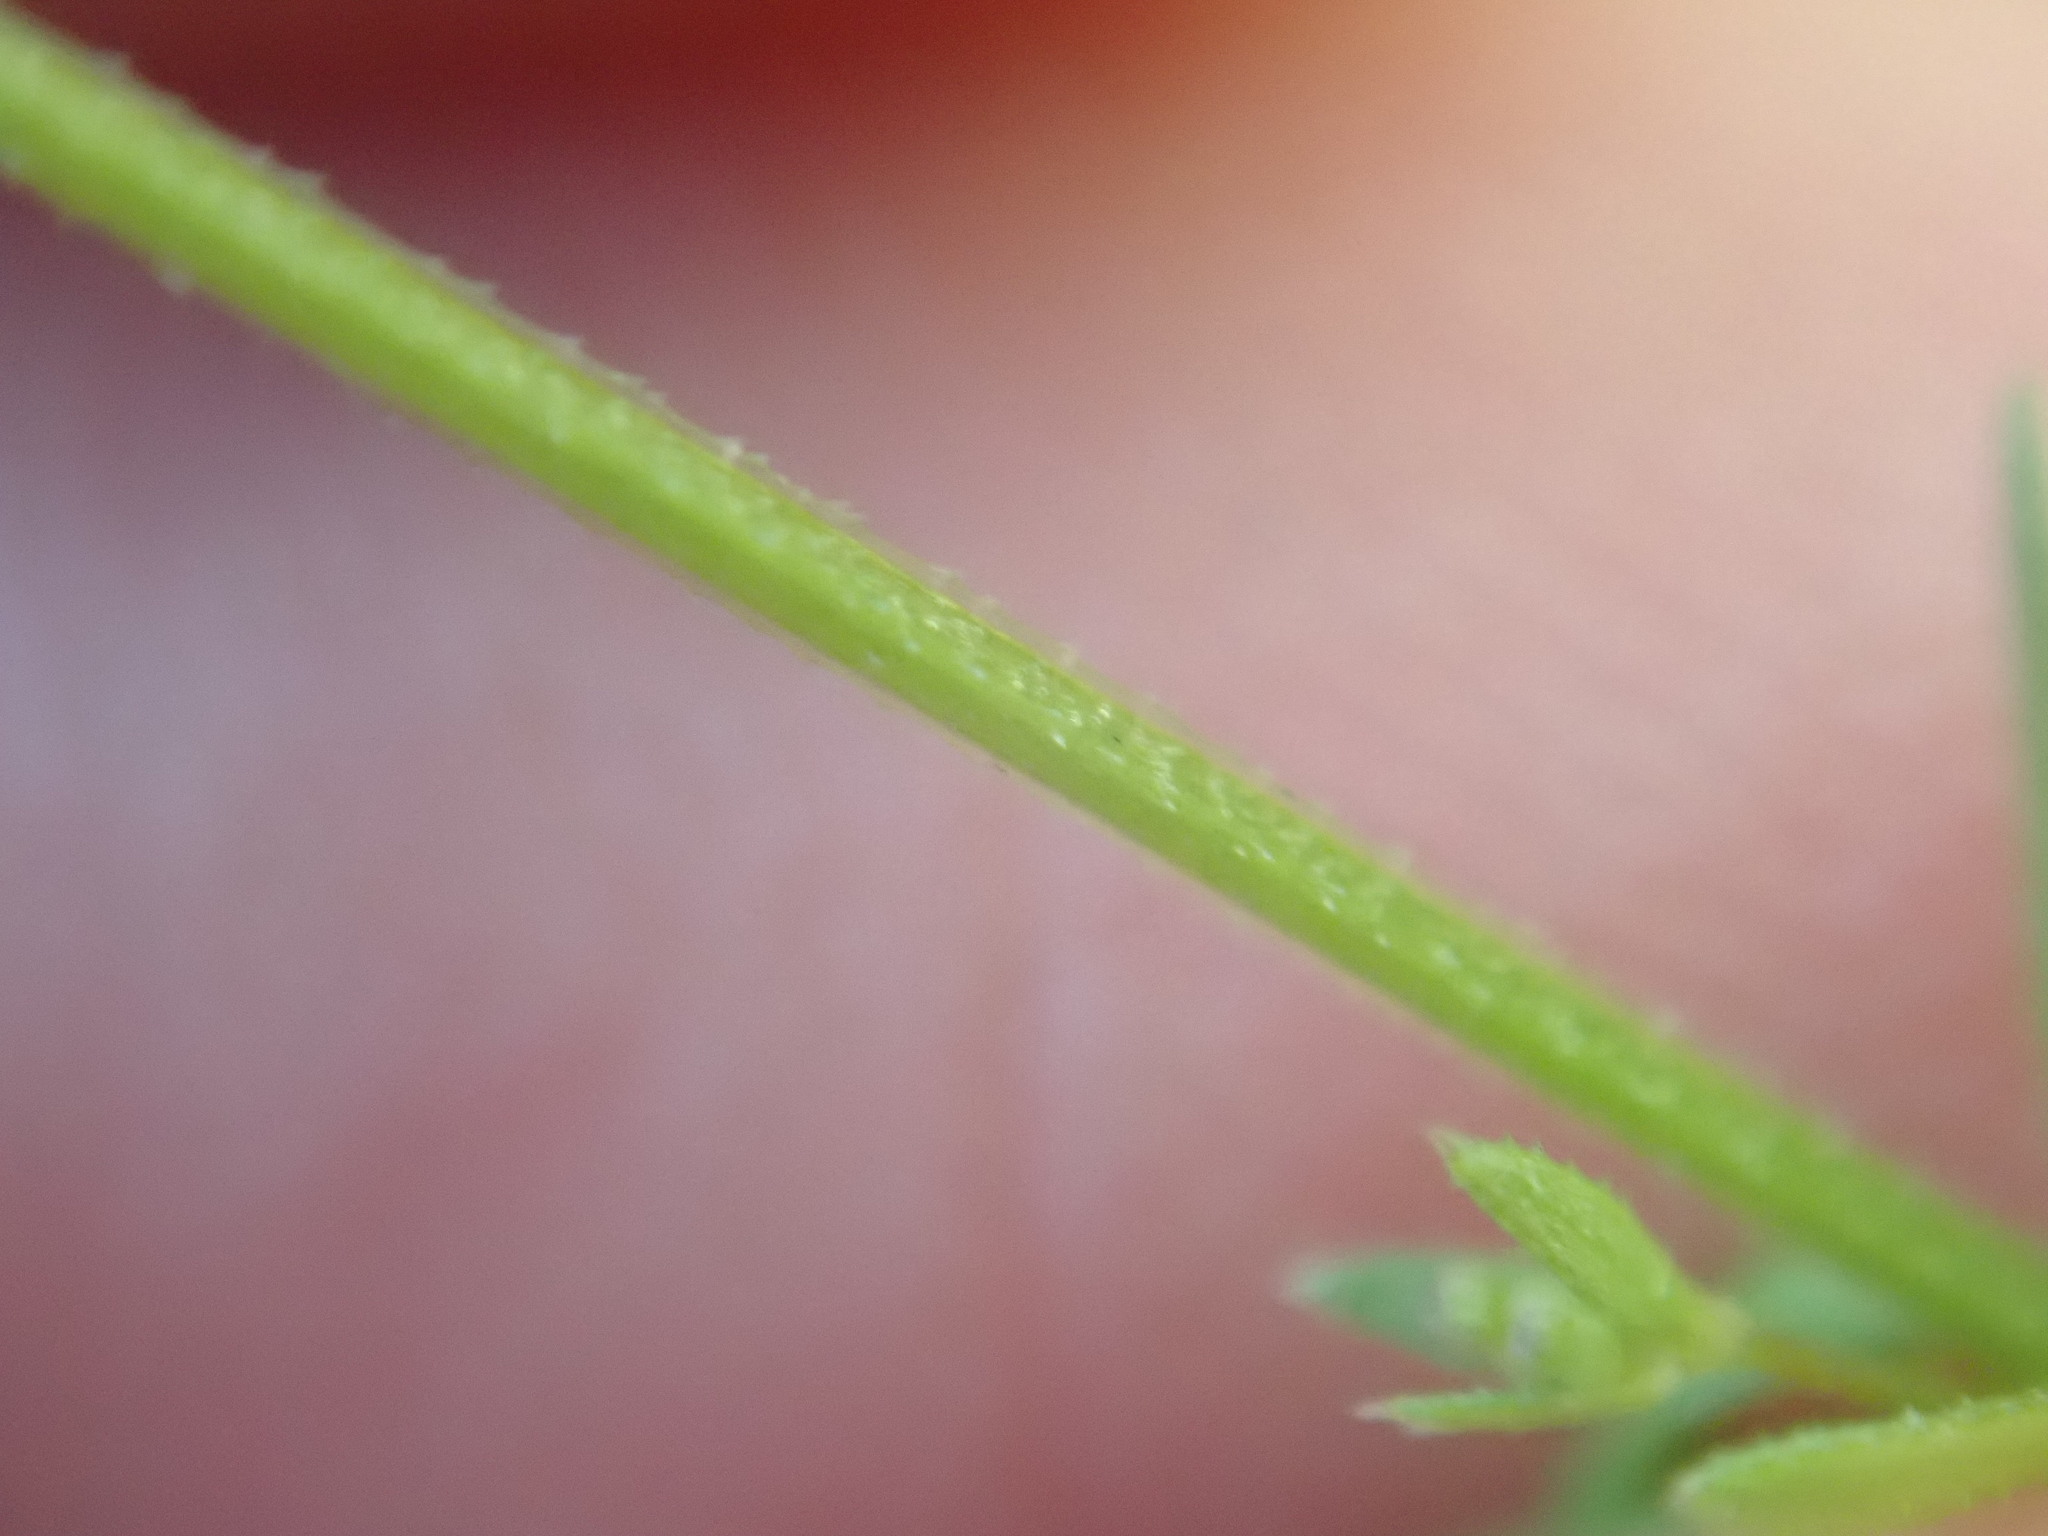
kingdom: Plantae
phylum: Tracheophyta
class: Magnoliopsida
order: Gentianales
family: Rubiaceae
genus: Galium
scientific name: Galium parisiense
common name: Wall bedstraw
